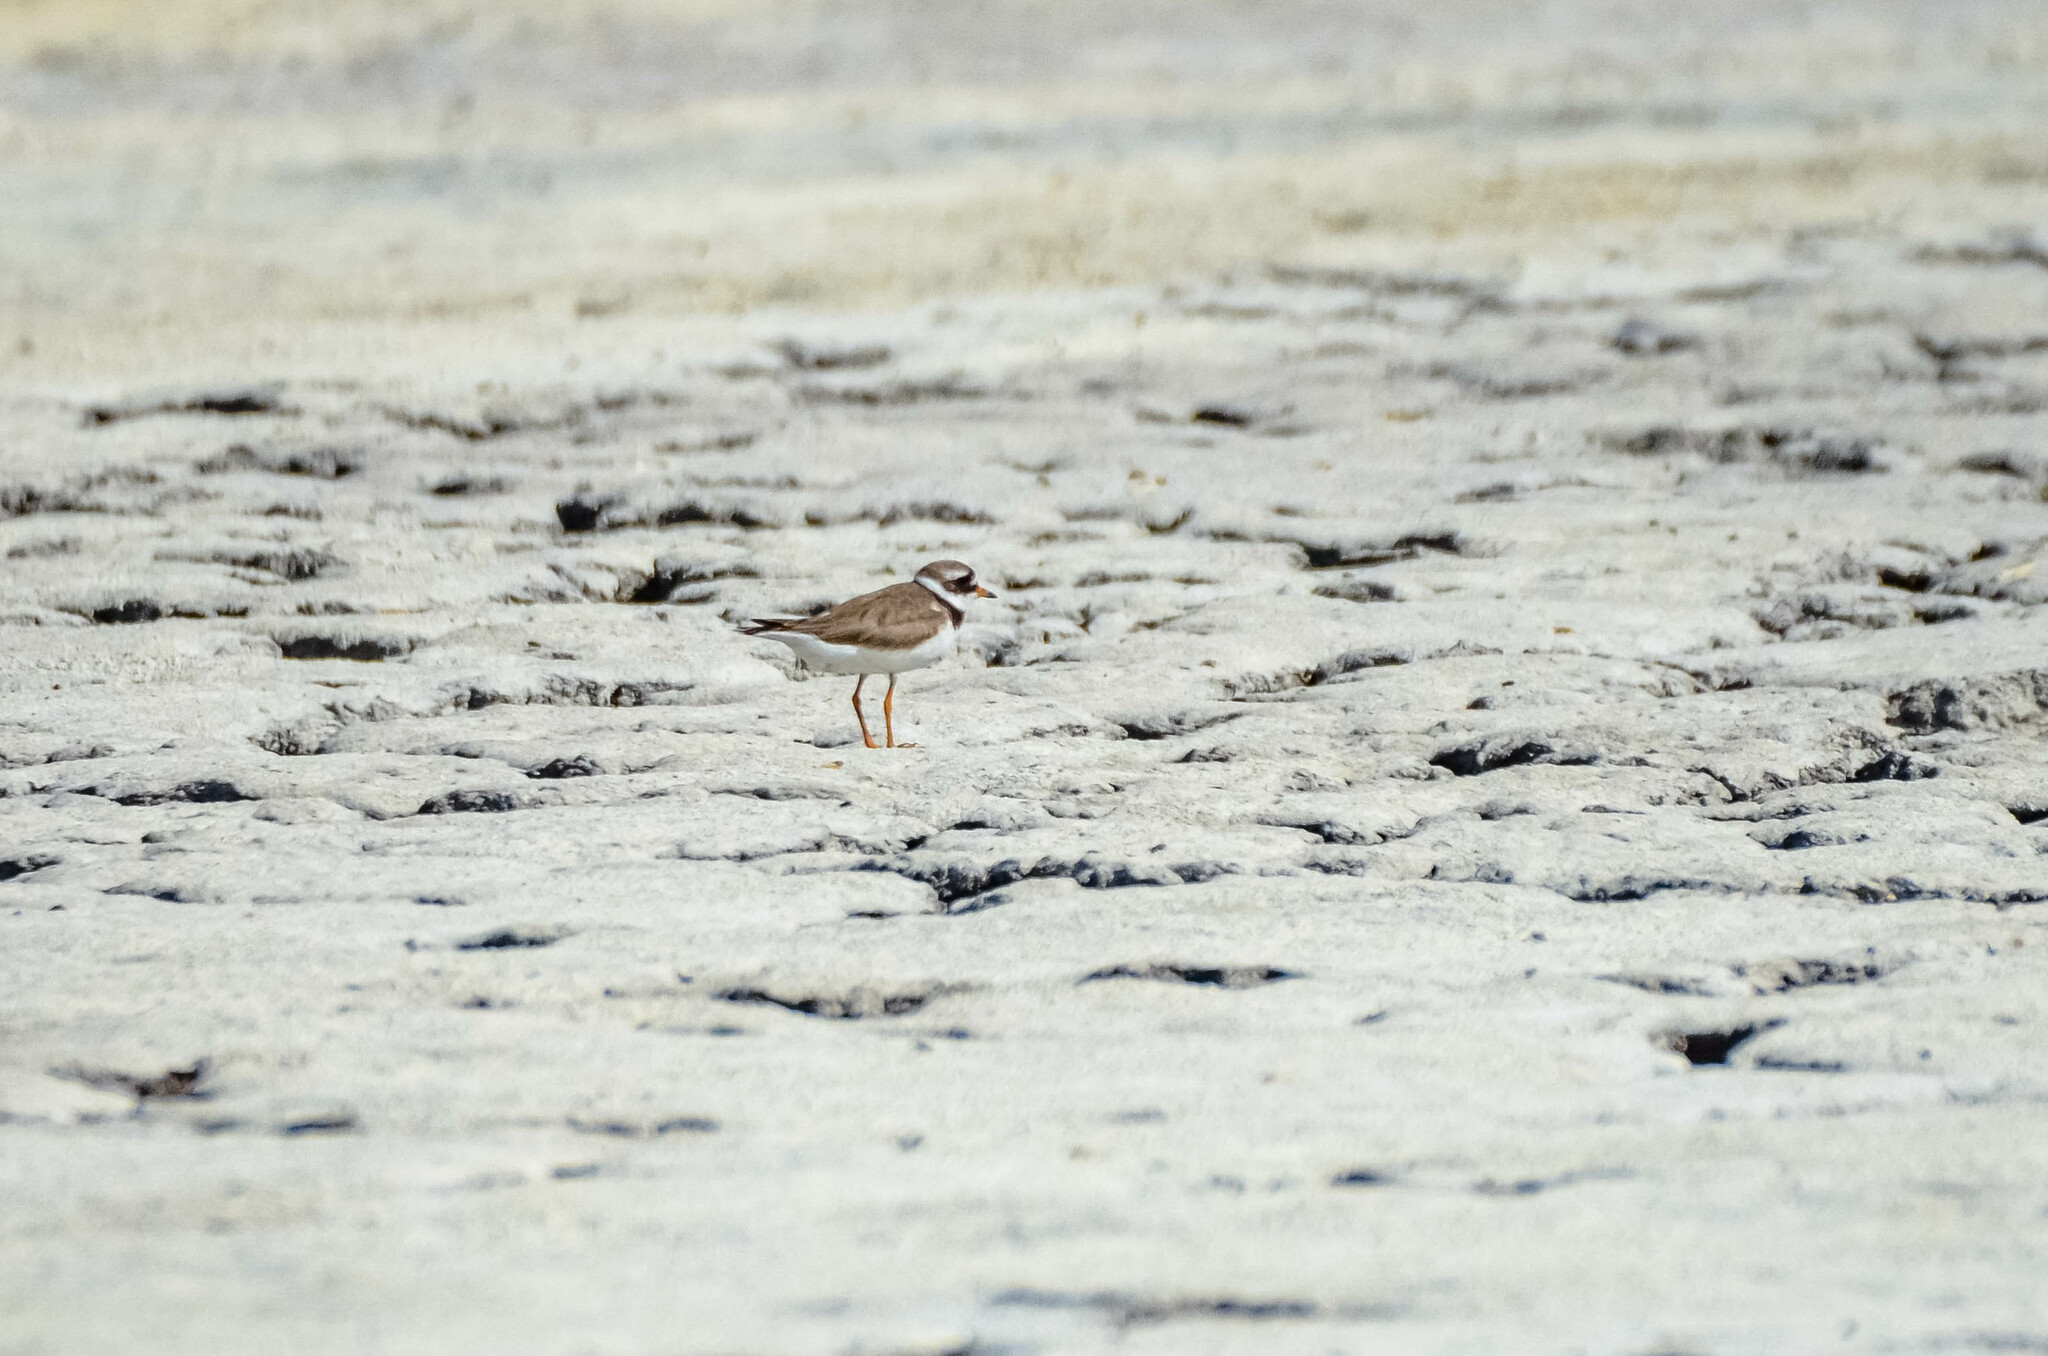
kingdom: Animalia
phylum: Chordata
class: Aves
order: Charadriiformes
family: Charadriidae
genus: Charadrius
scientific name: Charadrius hiaticula
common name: Common ringed plover
